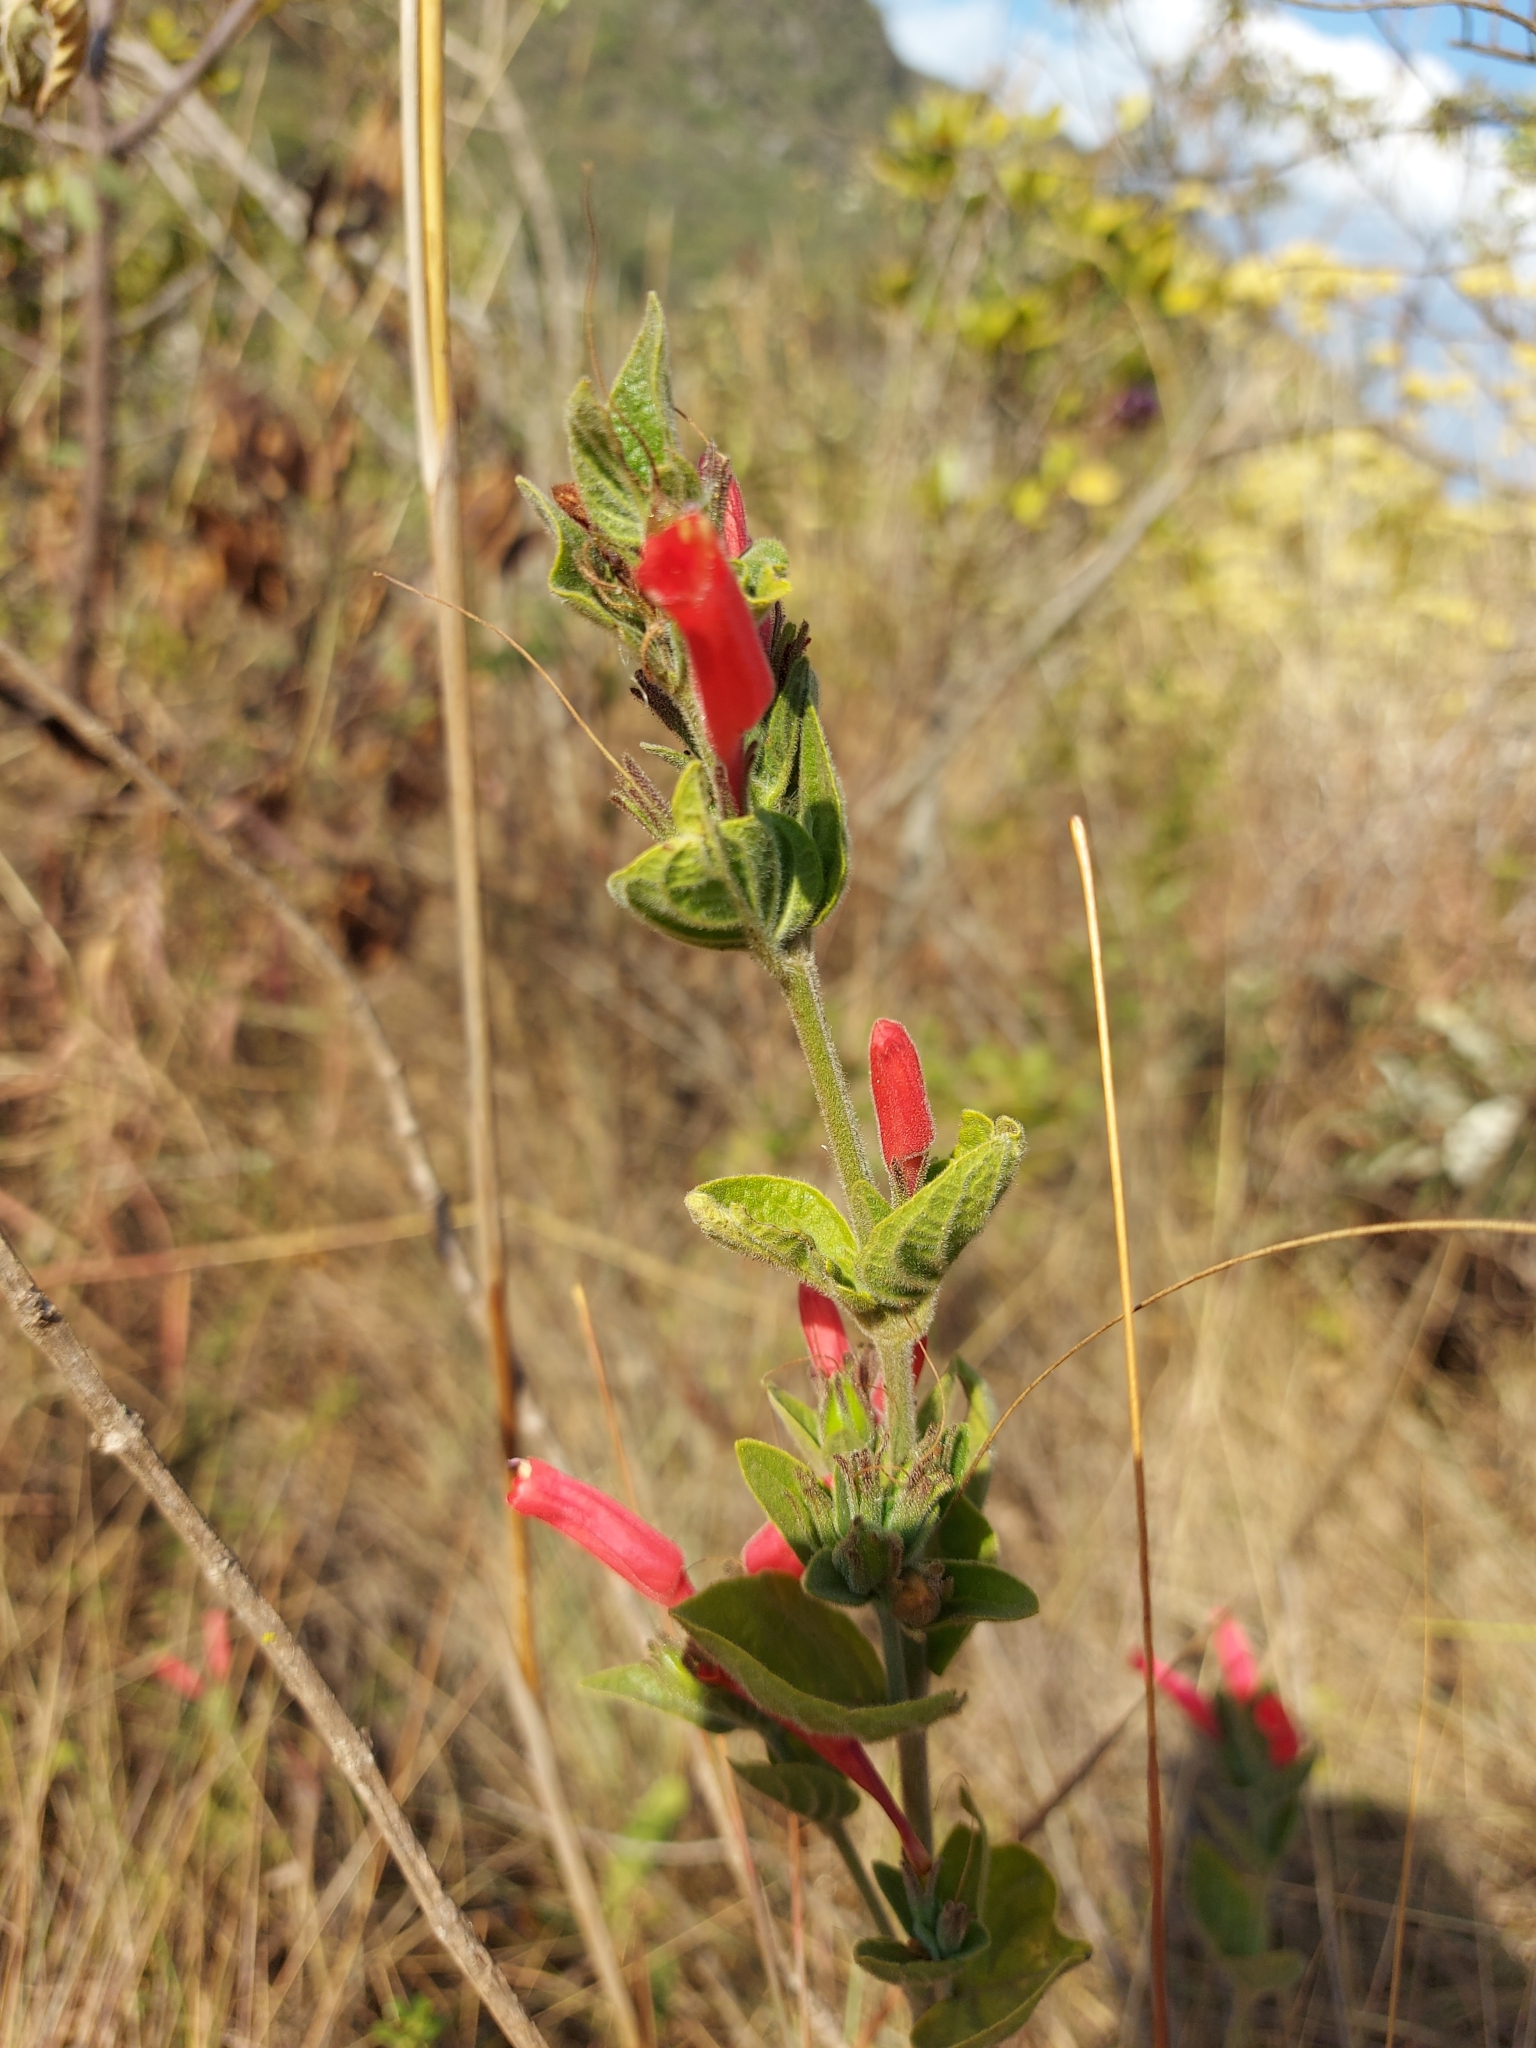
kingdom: Plantae
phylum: Tracheophyta
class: Magnoliopsida
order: Lamiales
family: Acanthaceae
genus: Ruellia
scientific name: Ruellia villosa
